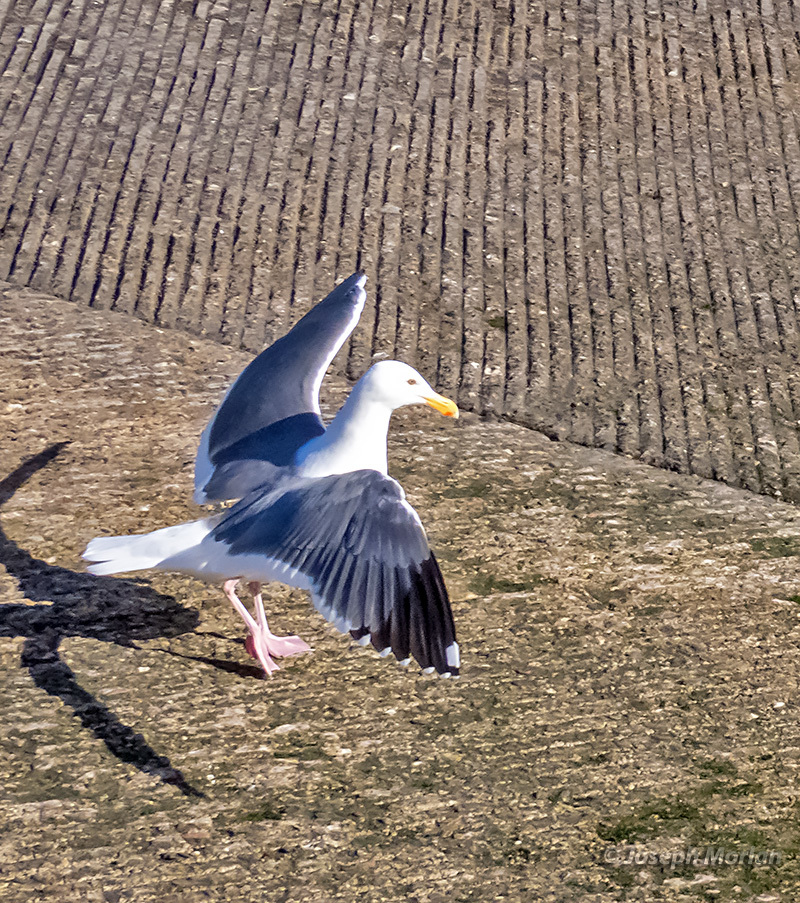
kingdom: Animalia
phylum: Chordata
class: Aves
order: Charadriiformes
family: Laridae
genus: Larus
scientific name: Larus occidentalis
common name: Western gull
